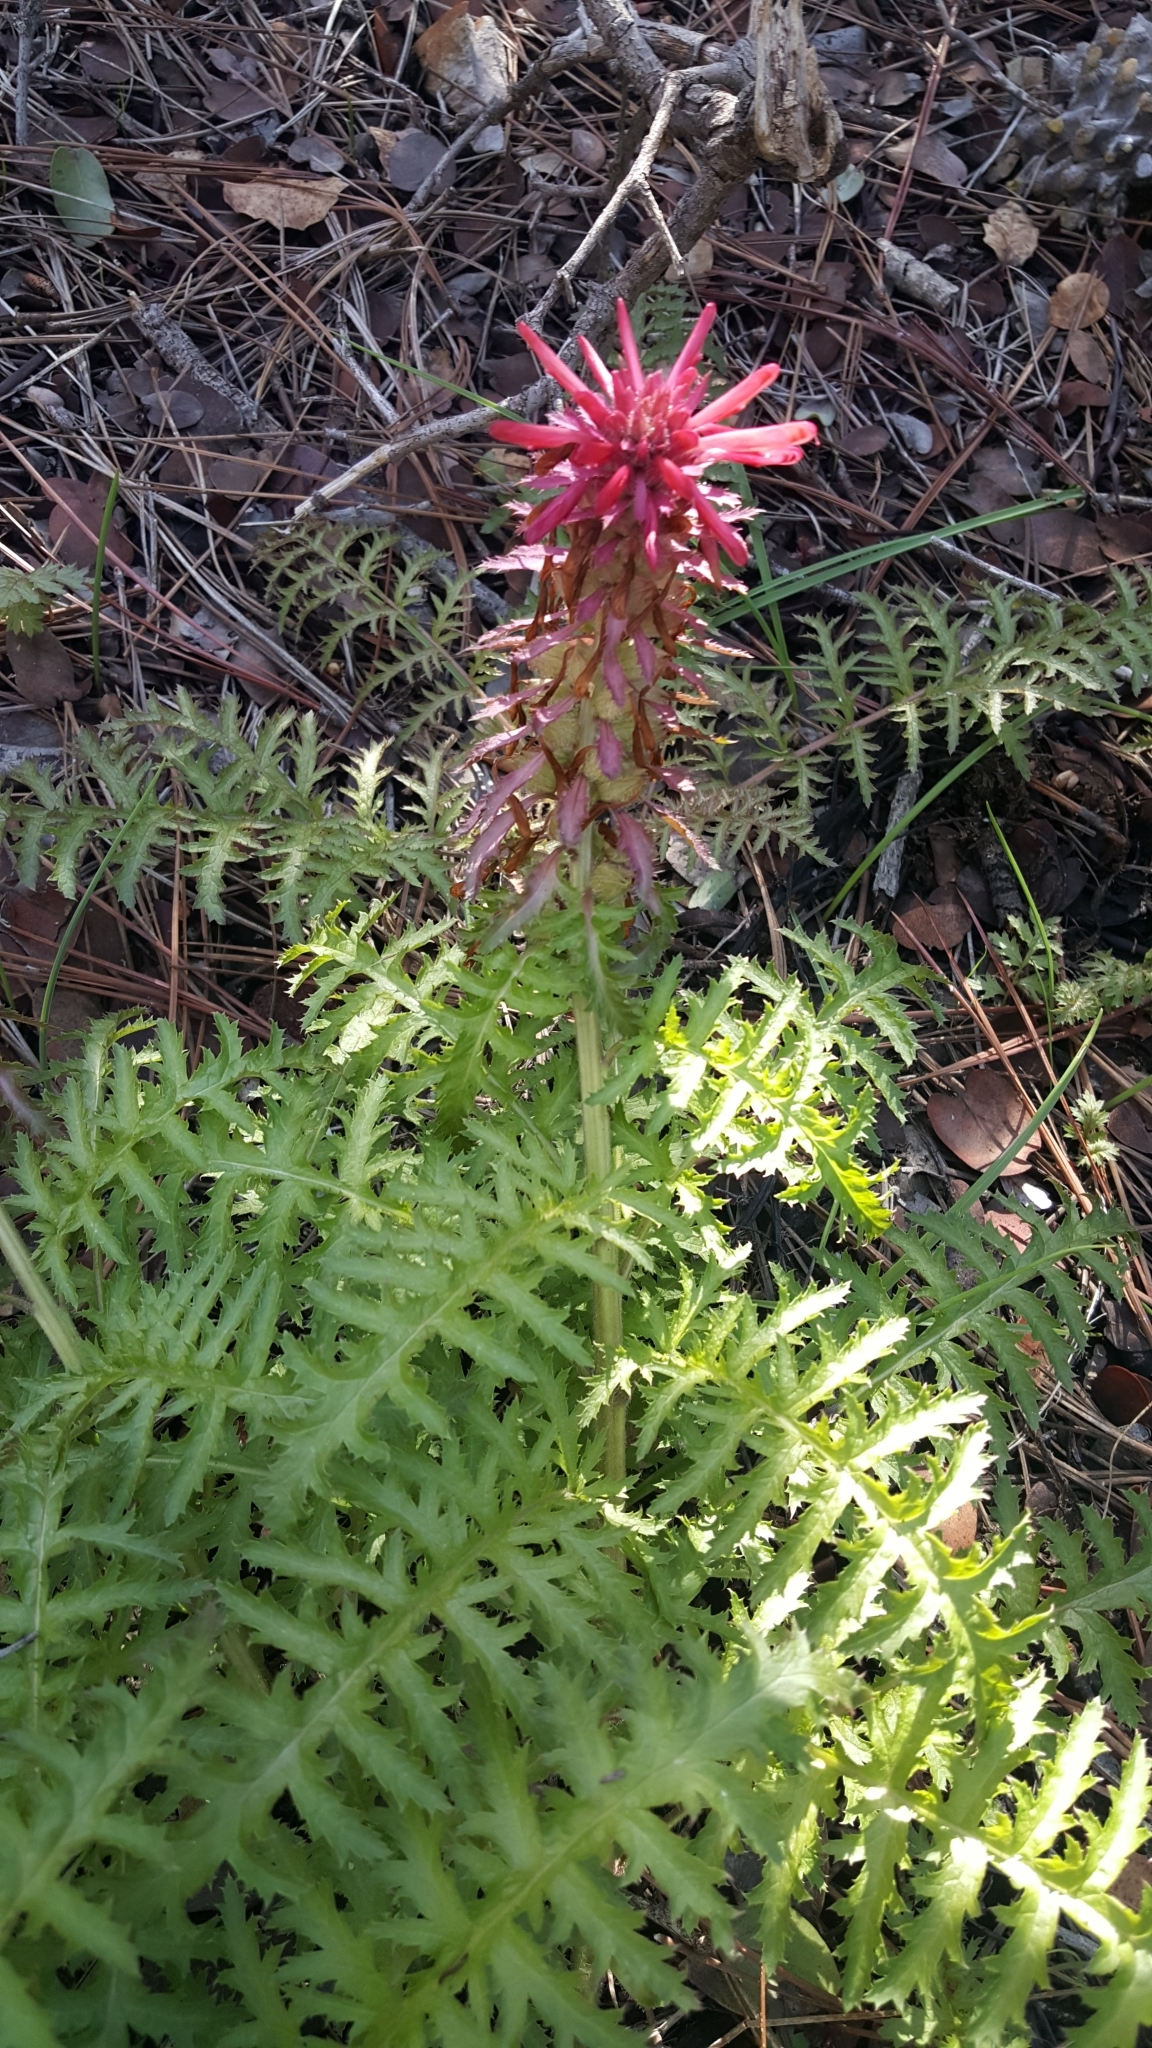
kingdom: Plantae
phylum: Tracheophyta
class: Magnoliopsida
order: Lamiales
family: Orobanchaceae
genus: Pedicularis
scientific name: Pedicularis densiflora
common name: Indian warrior
